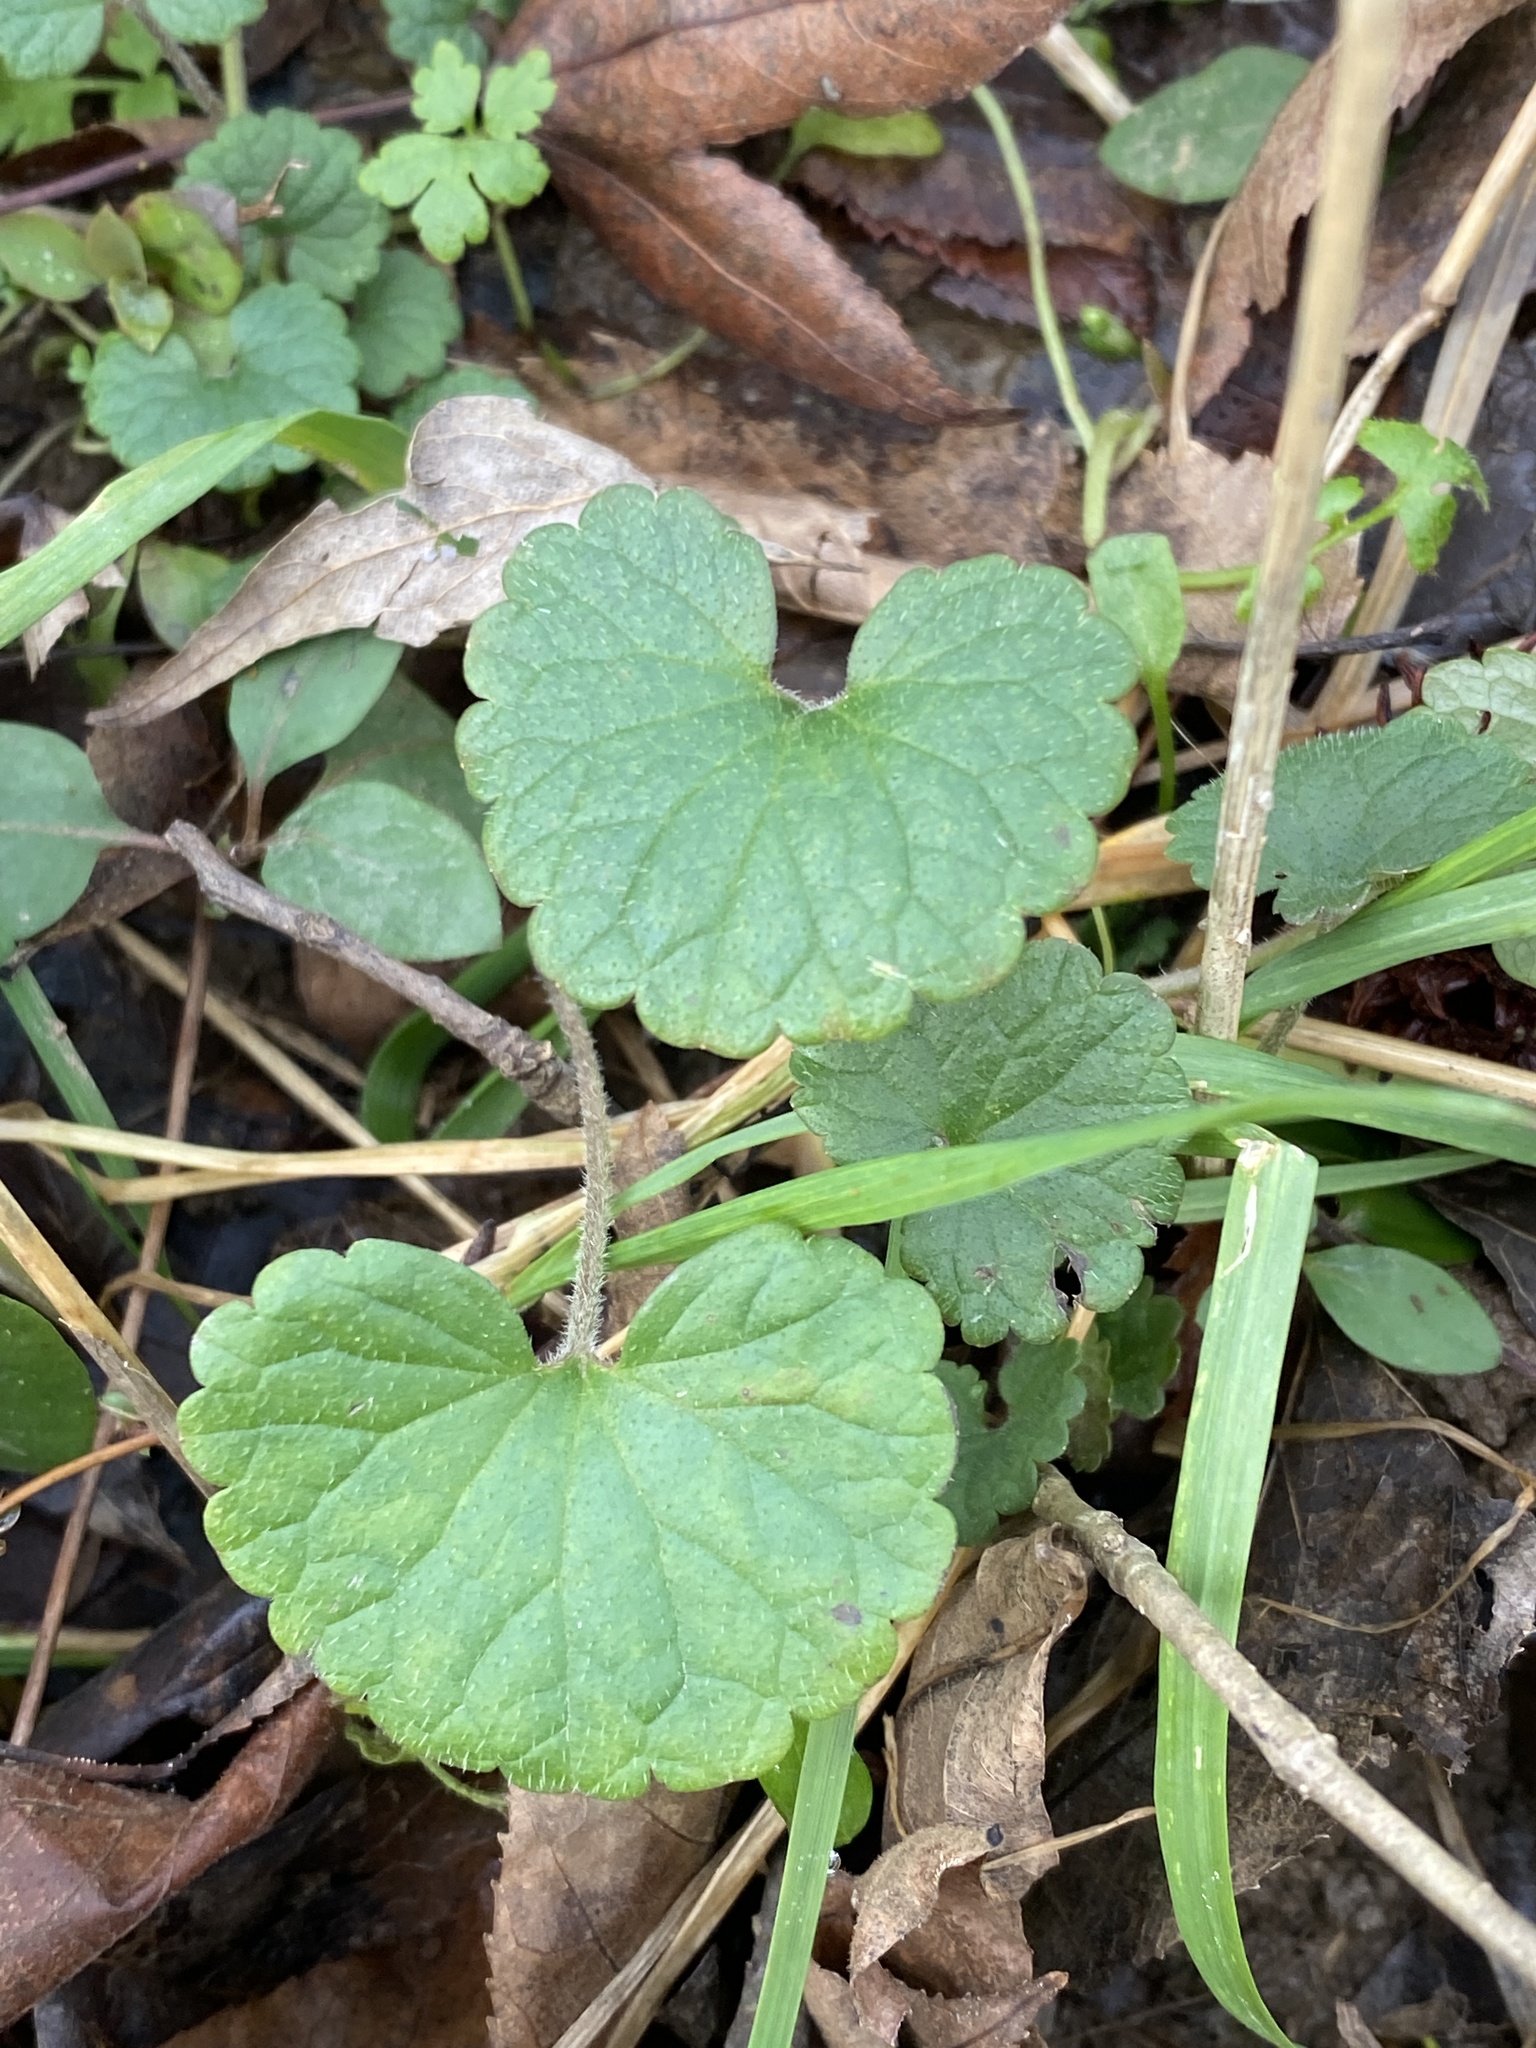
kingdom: Plantae
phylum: Tracheophyta
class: Magnoliopsida
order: Lamiales
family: Lamiaceae
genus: Glechoma
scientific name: Glechoma hederacea
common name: Ground ivy
